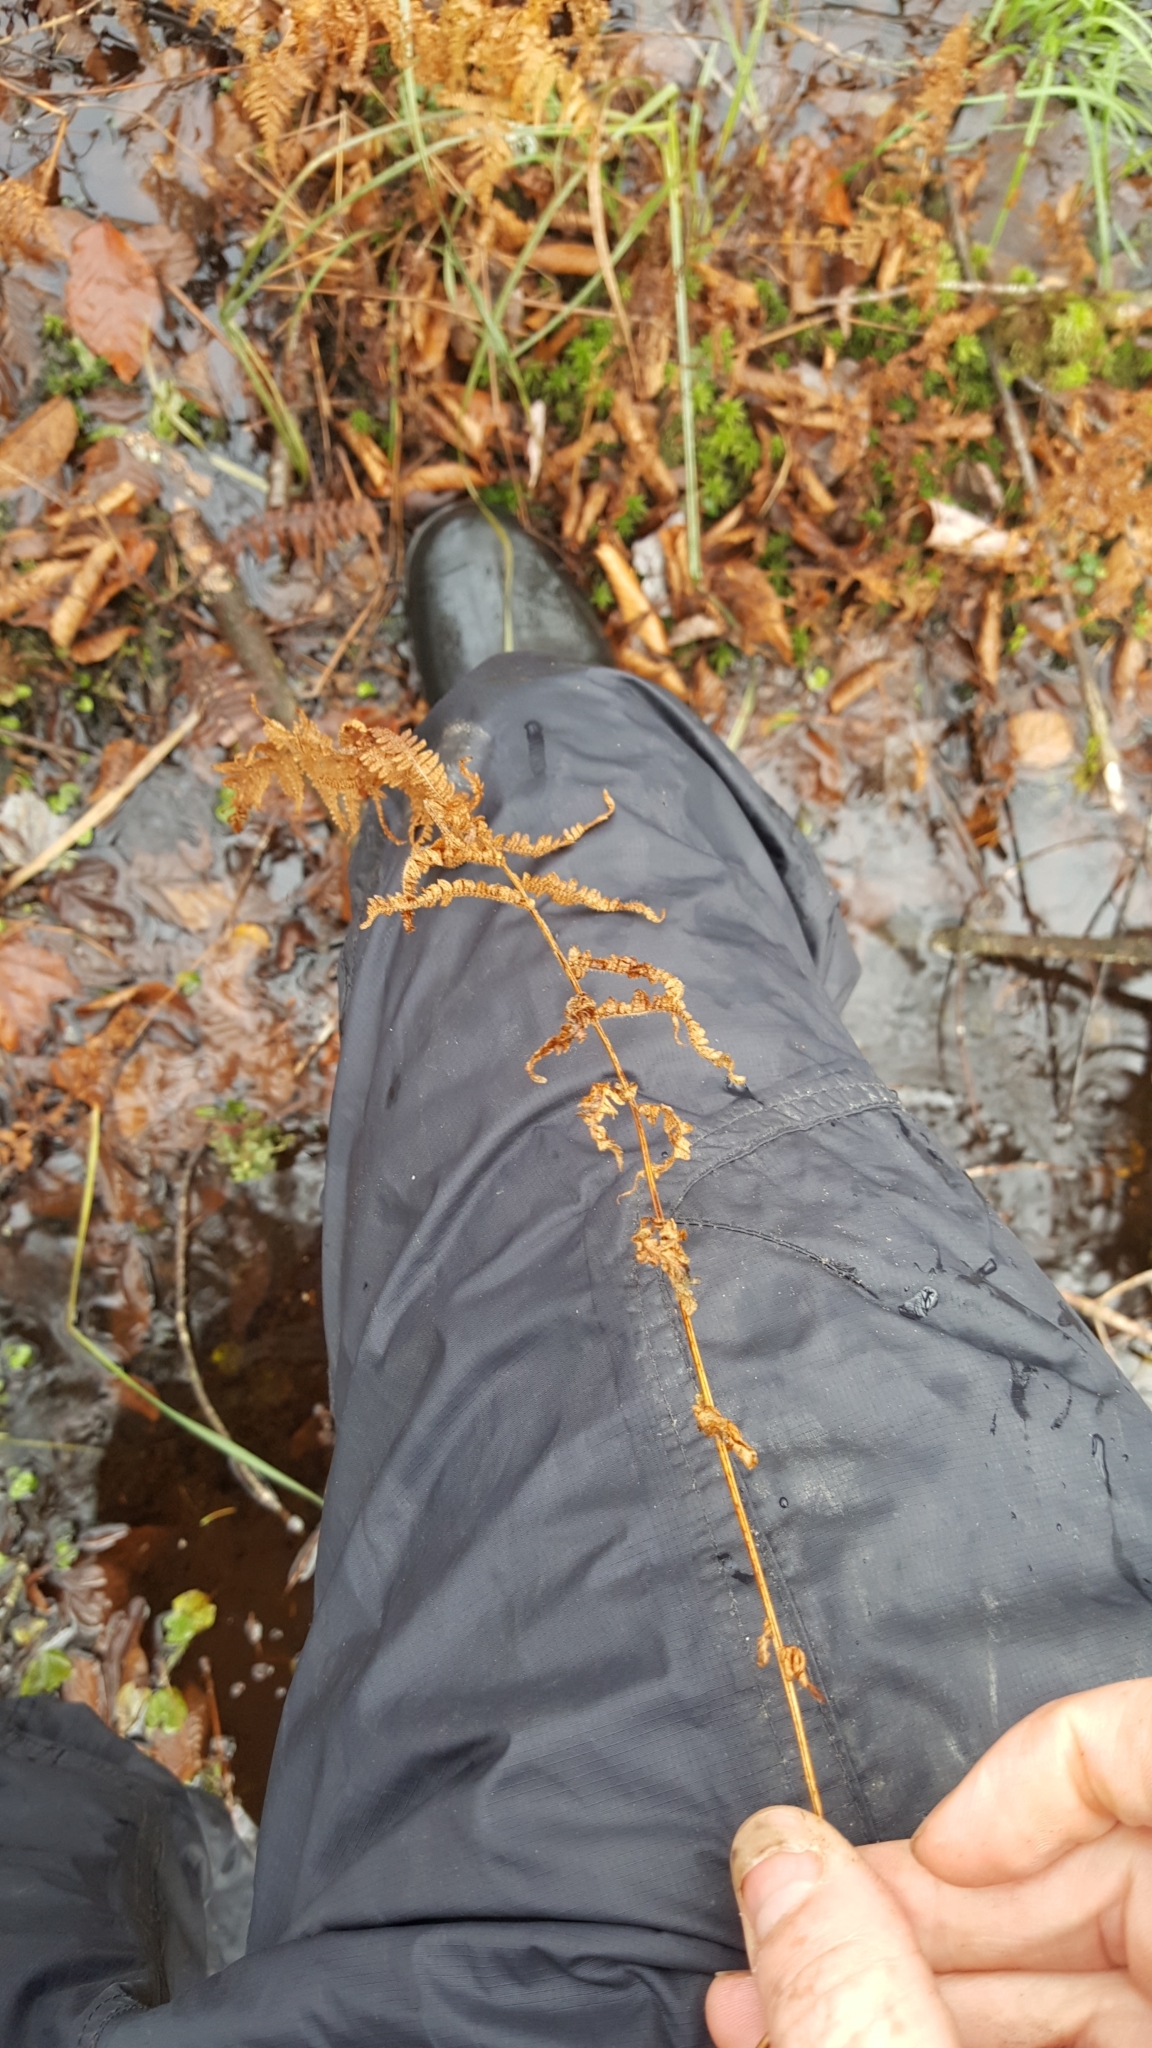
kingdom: Plantae
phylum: Tracheophyta
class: Polypodiopsida
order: Polypodiales
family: Thelypteridaceae
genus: Amauropelta
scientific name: Amauropelta noveboracensis
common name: New york fern
